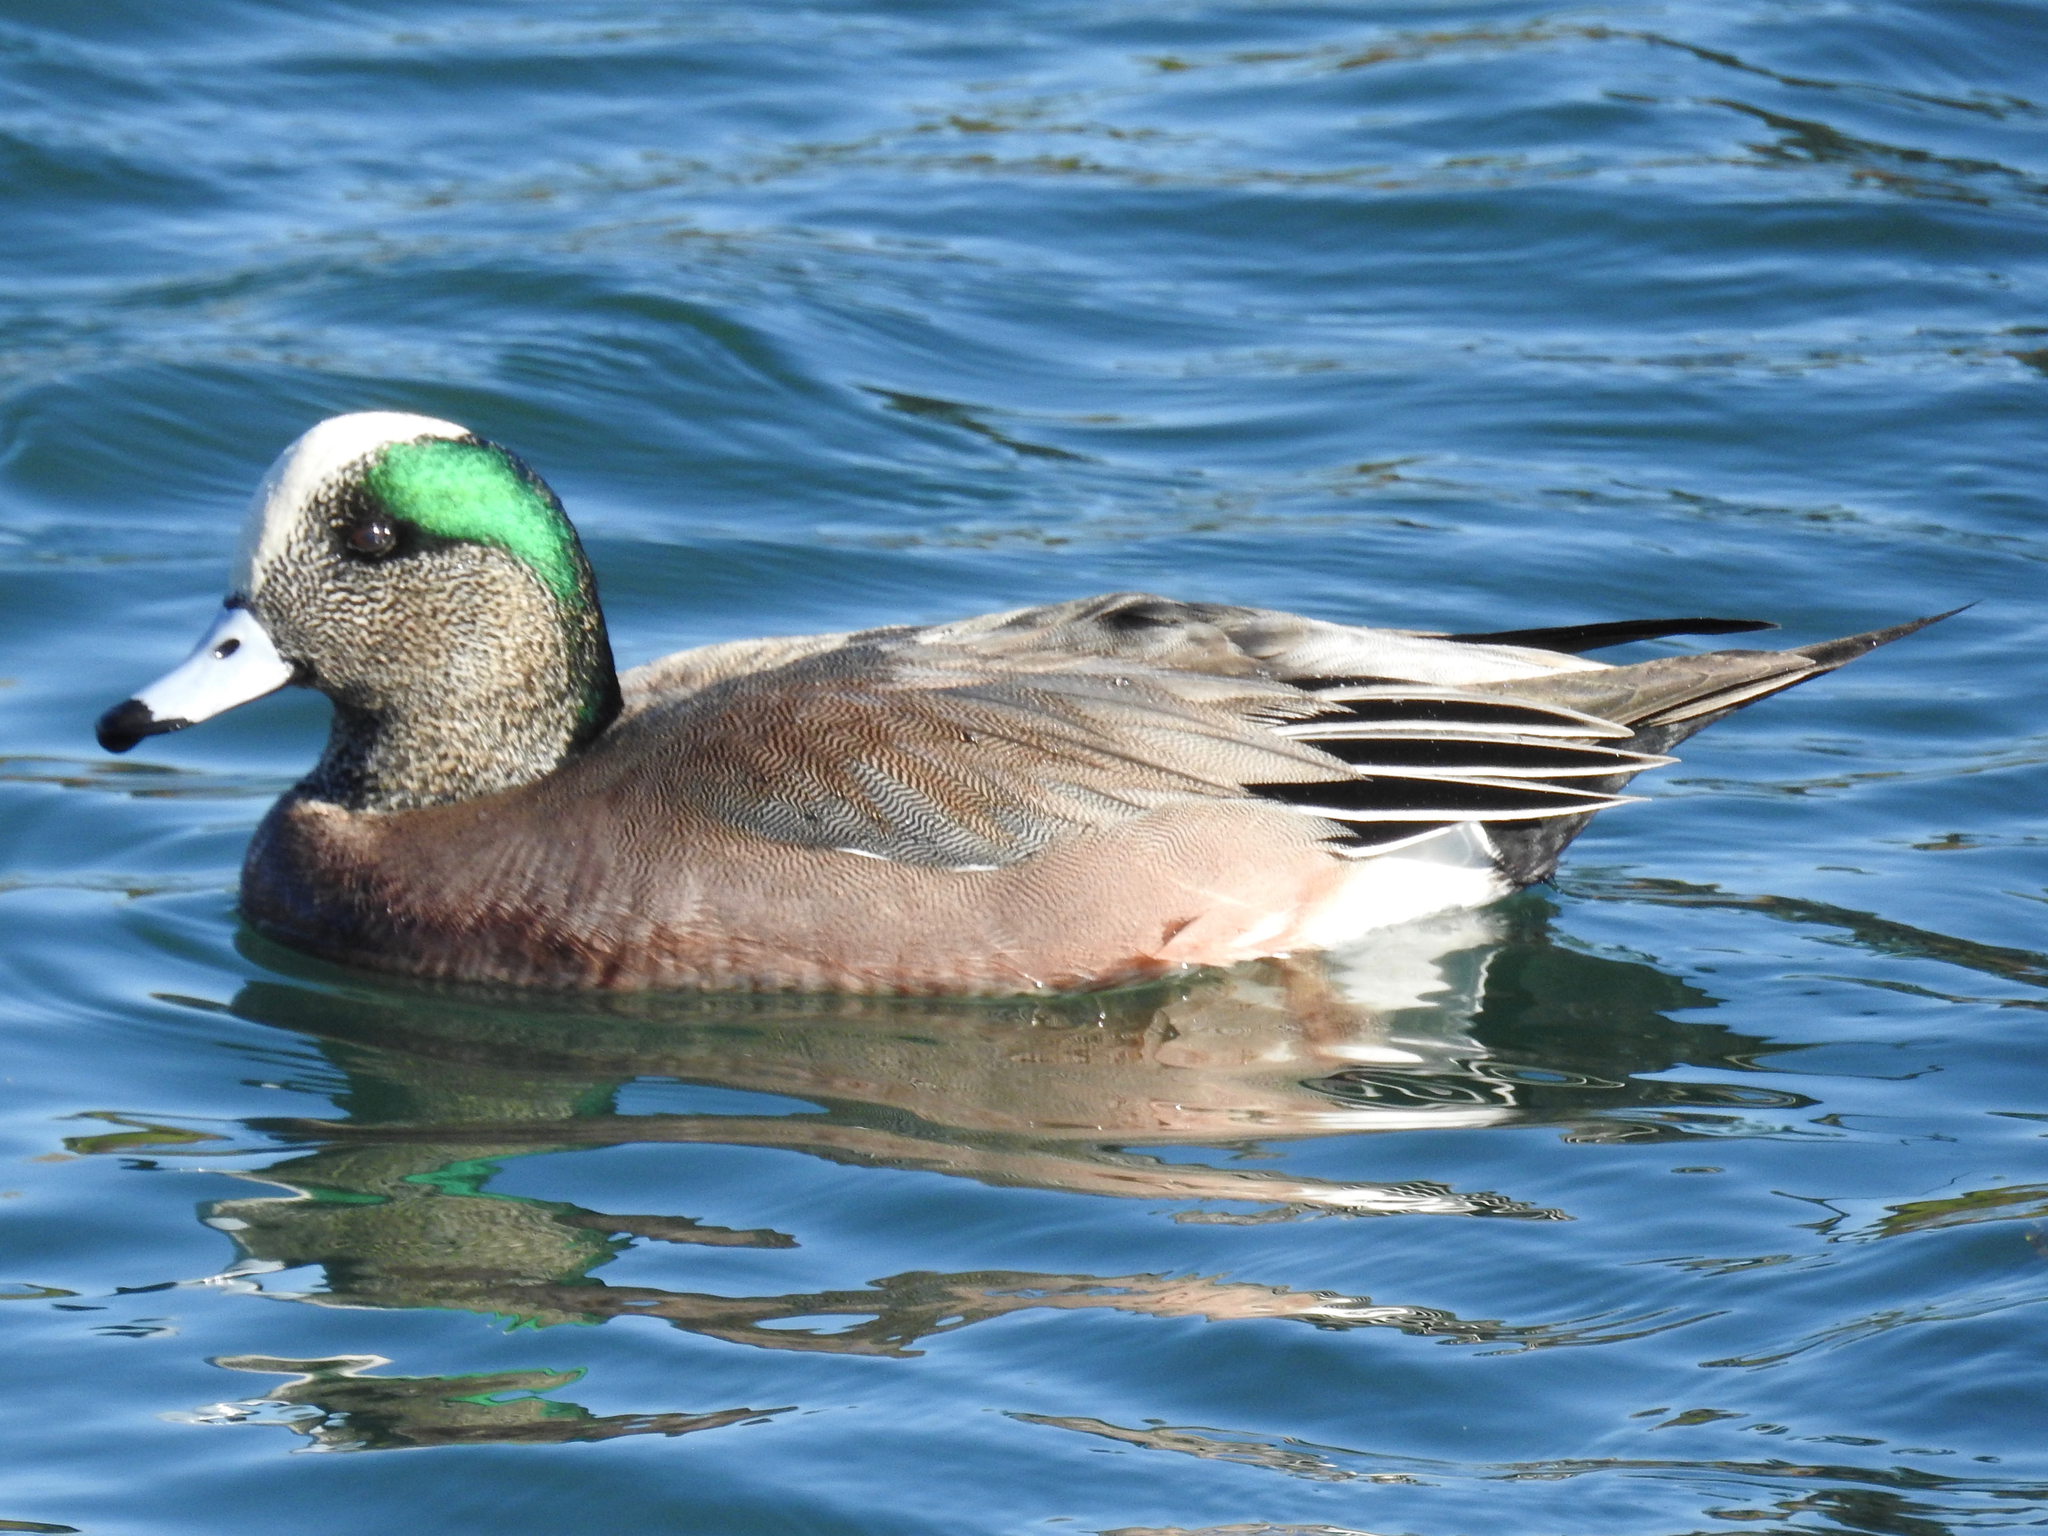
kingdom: Animalia
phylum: Chordata
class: Aves
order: Anseriformes
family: Anatidae
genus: Mareca
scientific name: Mareca americana
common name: American wigeon
